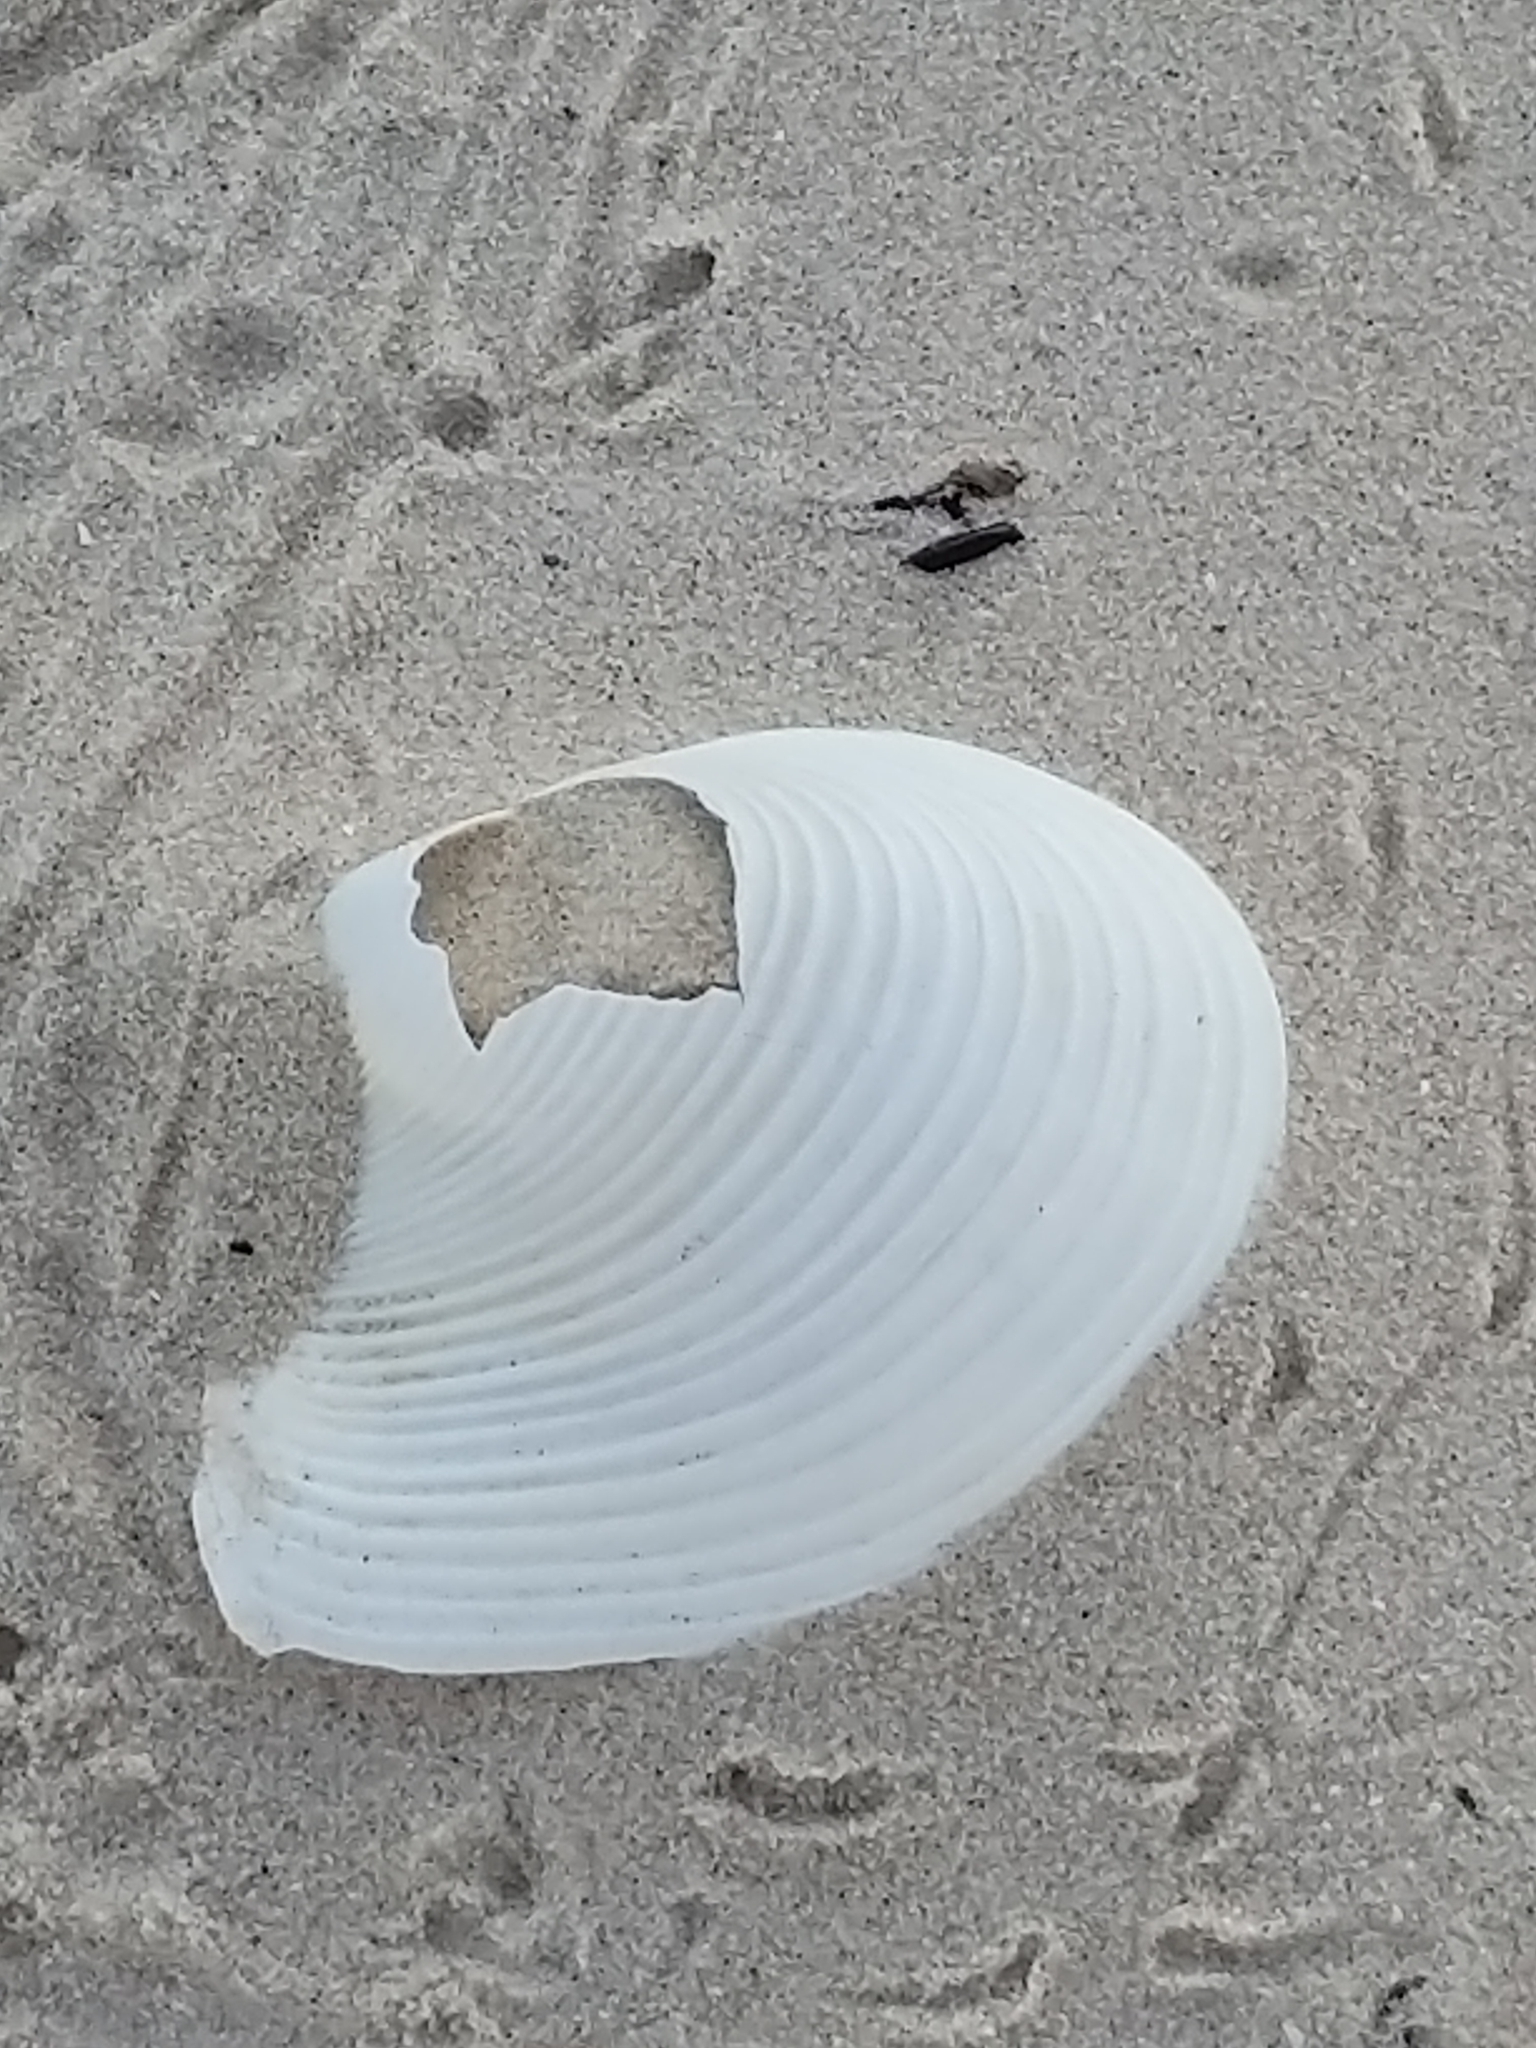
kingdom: Animalia
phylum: Mollusca
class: Bivalvia
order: Venerida
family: Anatinellidae
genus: Raeta
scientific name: Raeta plicatella
